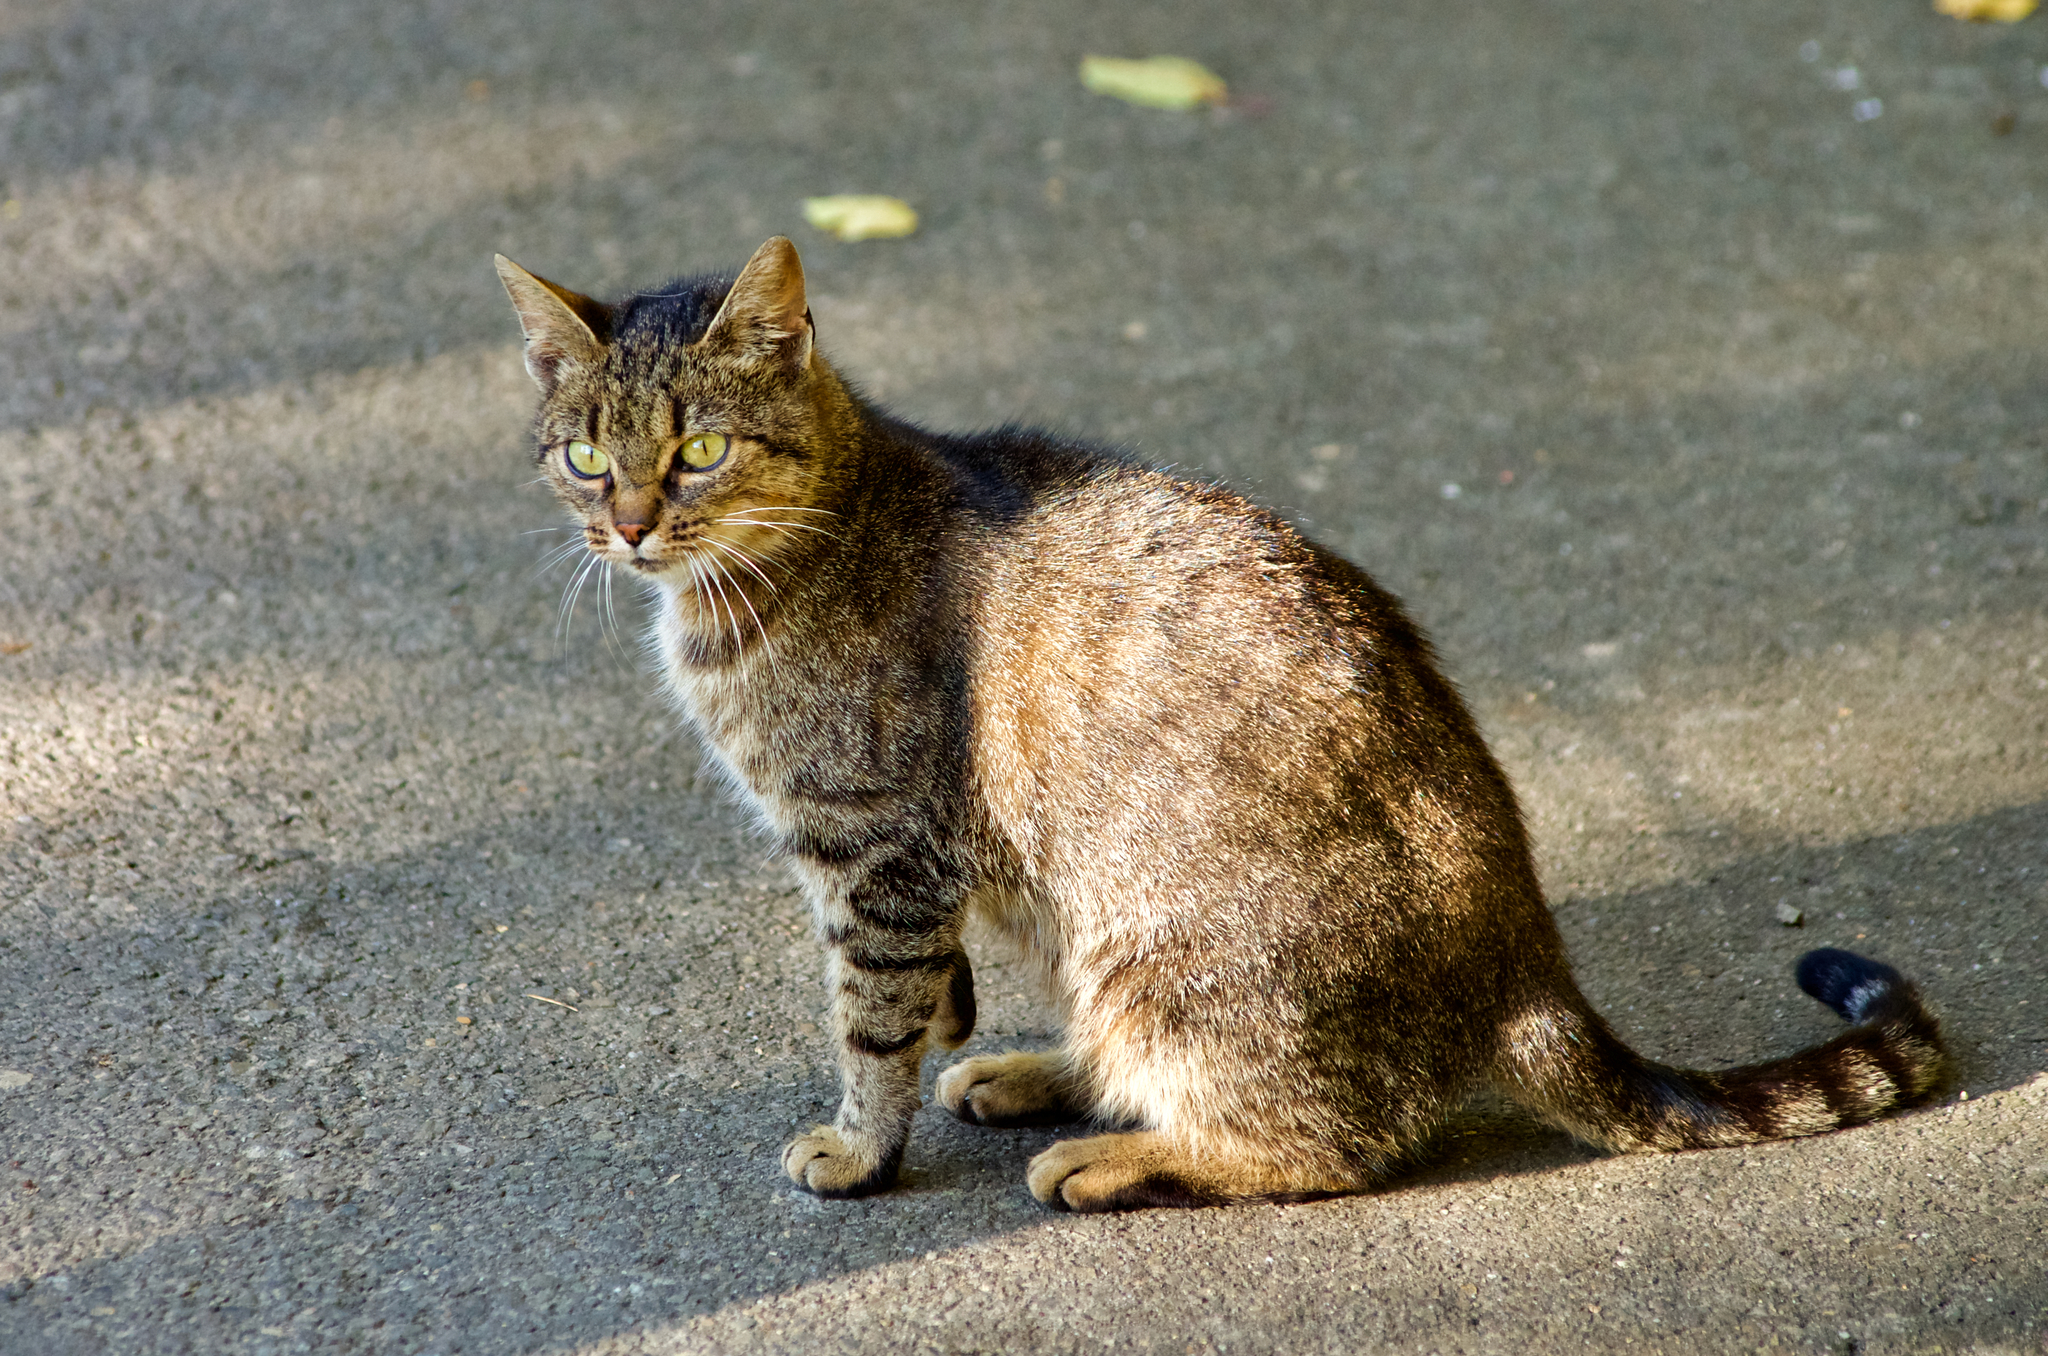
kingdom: Animalia
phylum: Chordata
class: Mammalia
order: Carnivora
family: Felidae
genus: Felis
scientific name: Felis catus
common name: Domestic cat
